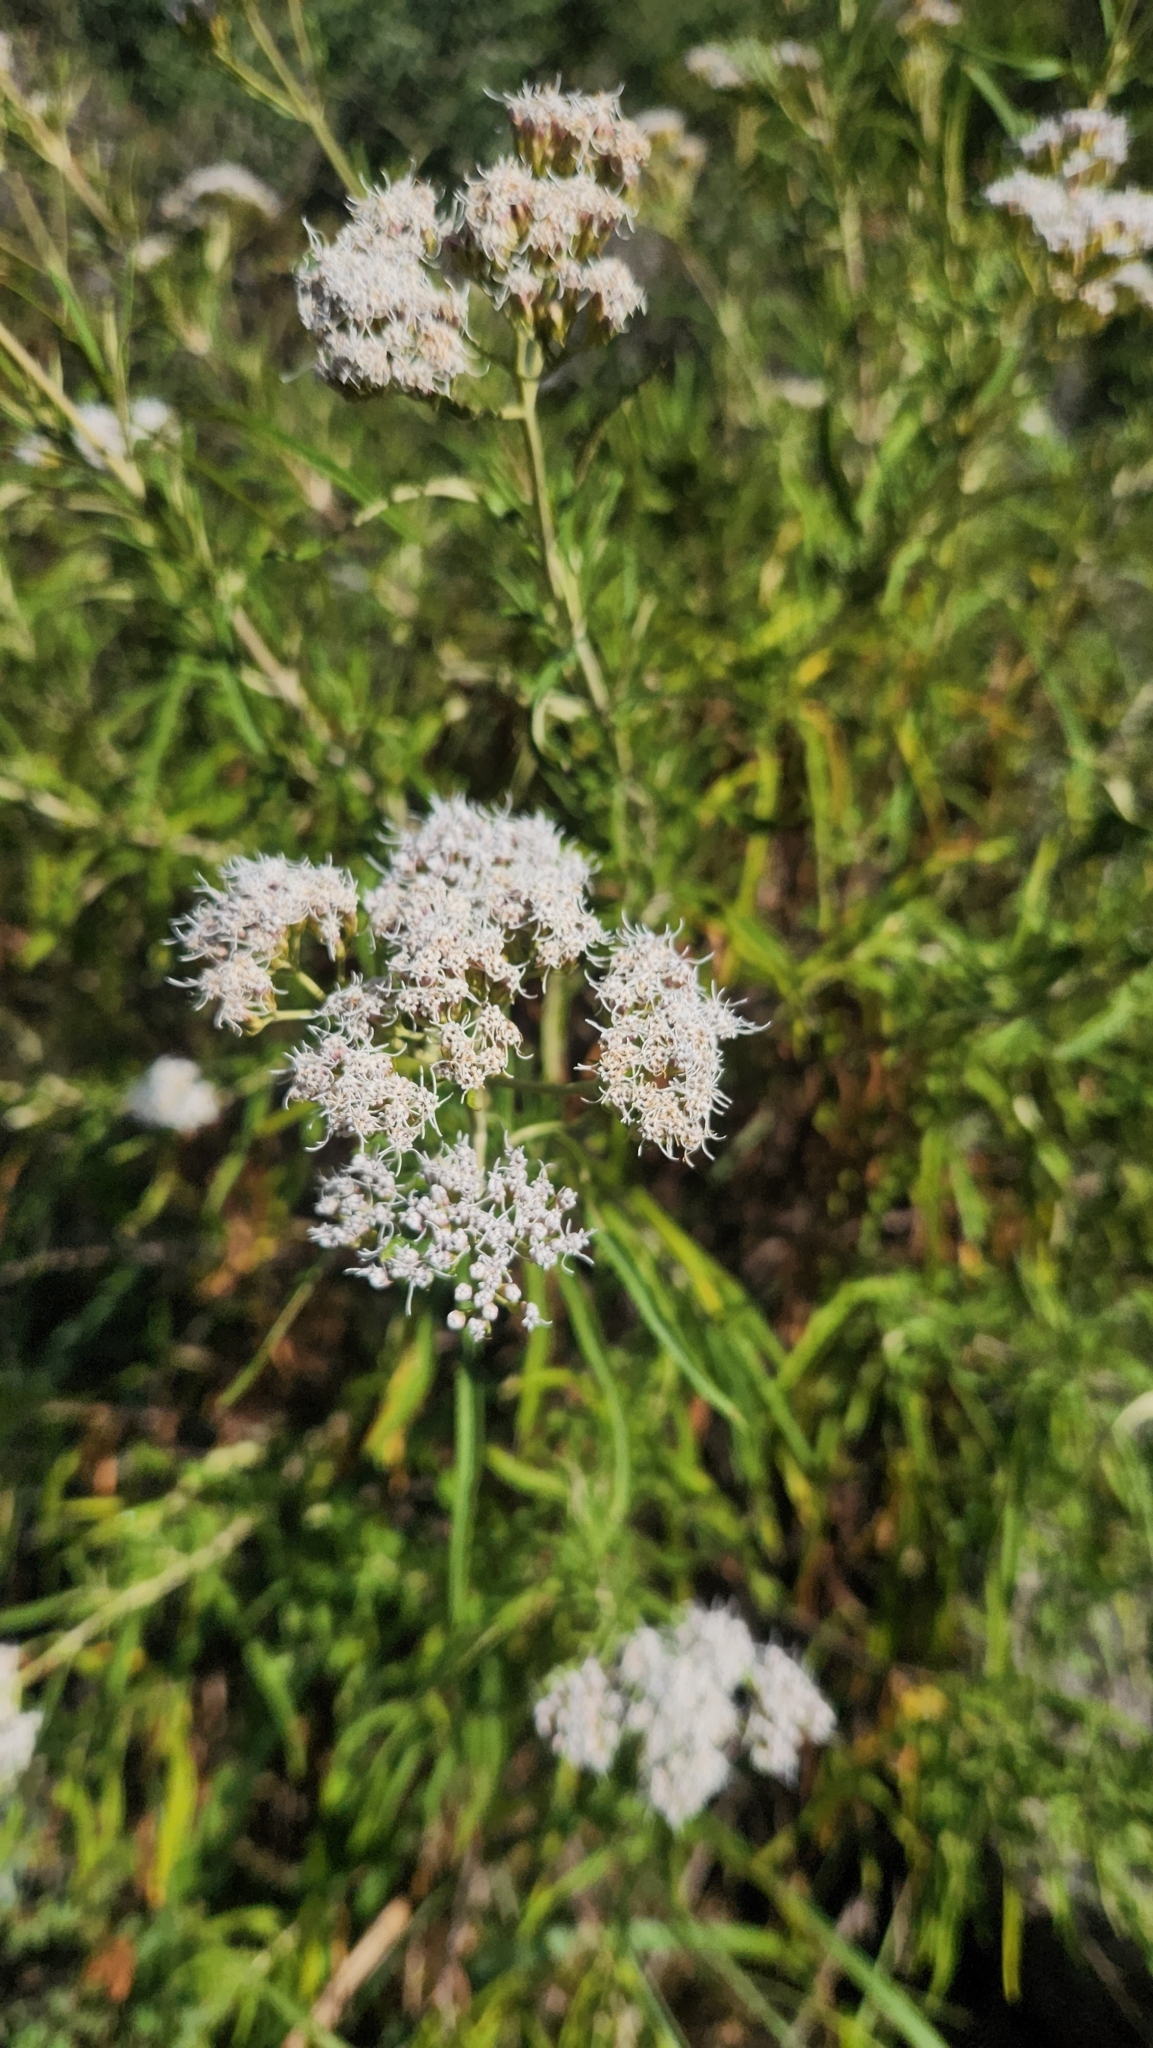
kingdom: Plantae
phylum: Tracheophyta
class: Magnoliopsida
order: Asterales
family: Asteraceae
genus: Grazielia
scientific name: Grazielia serrata
